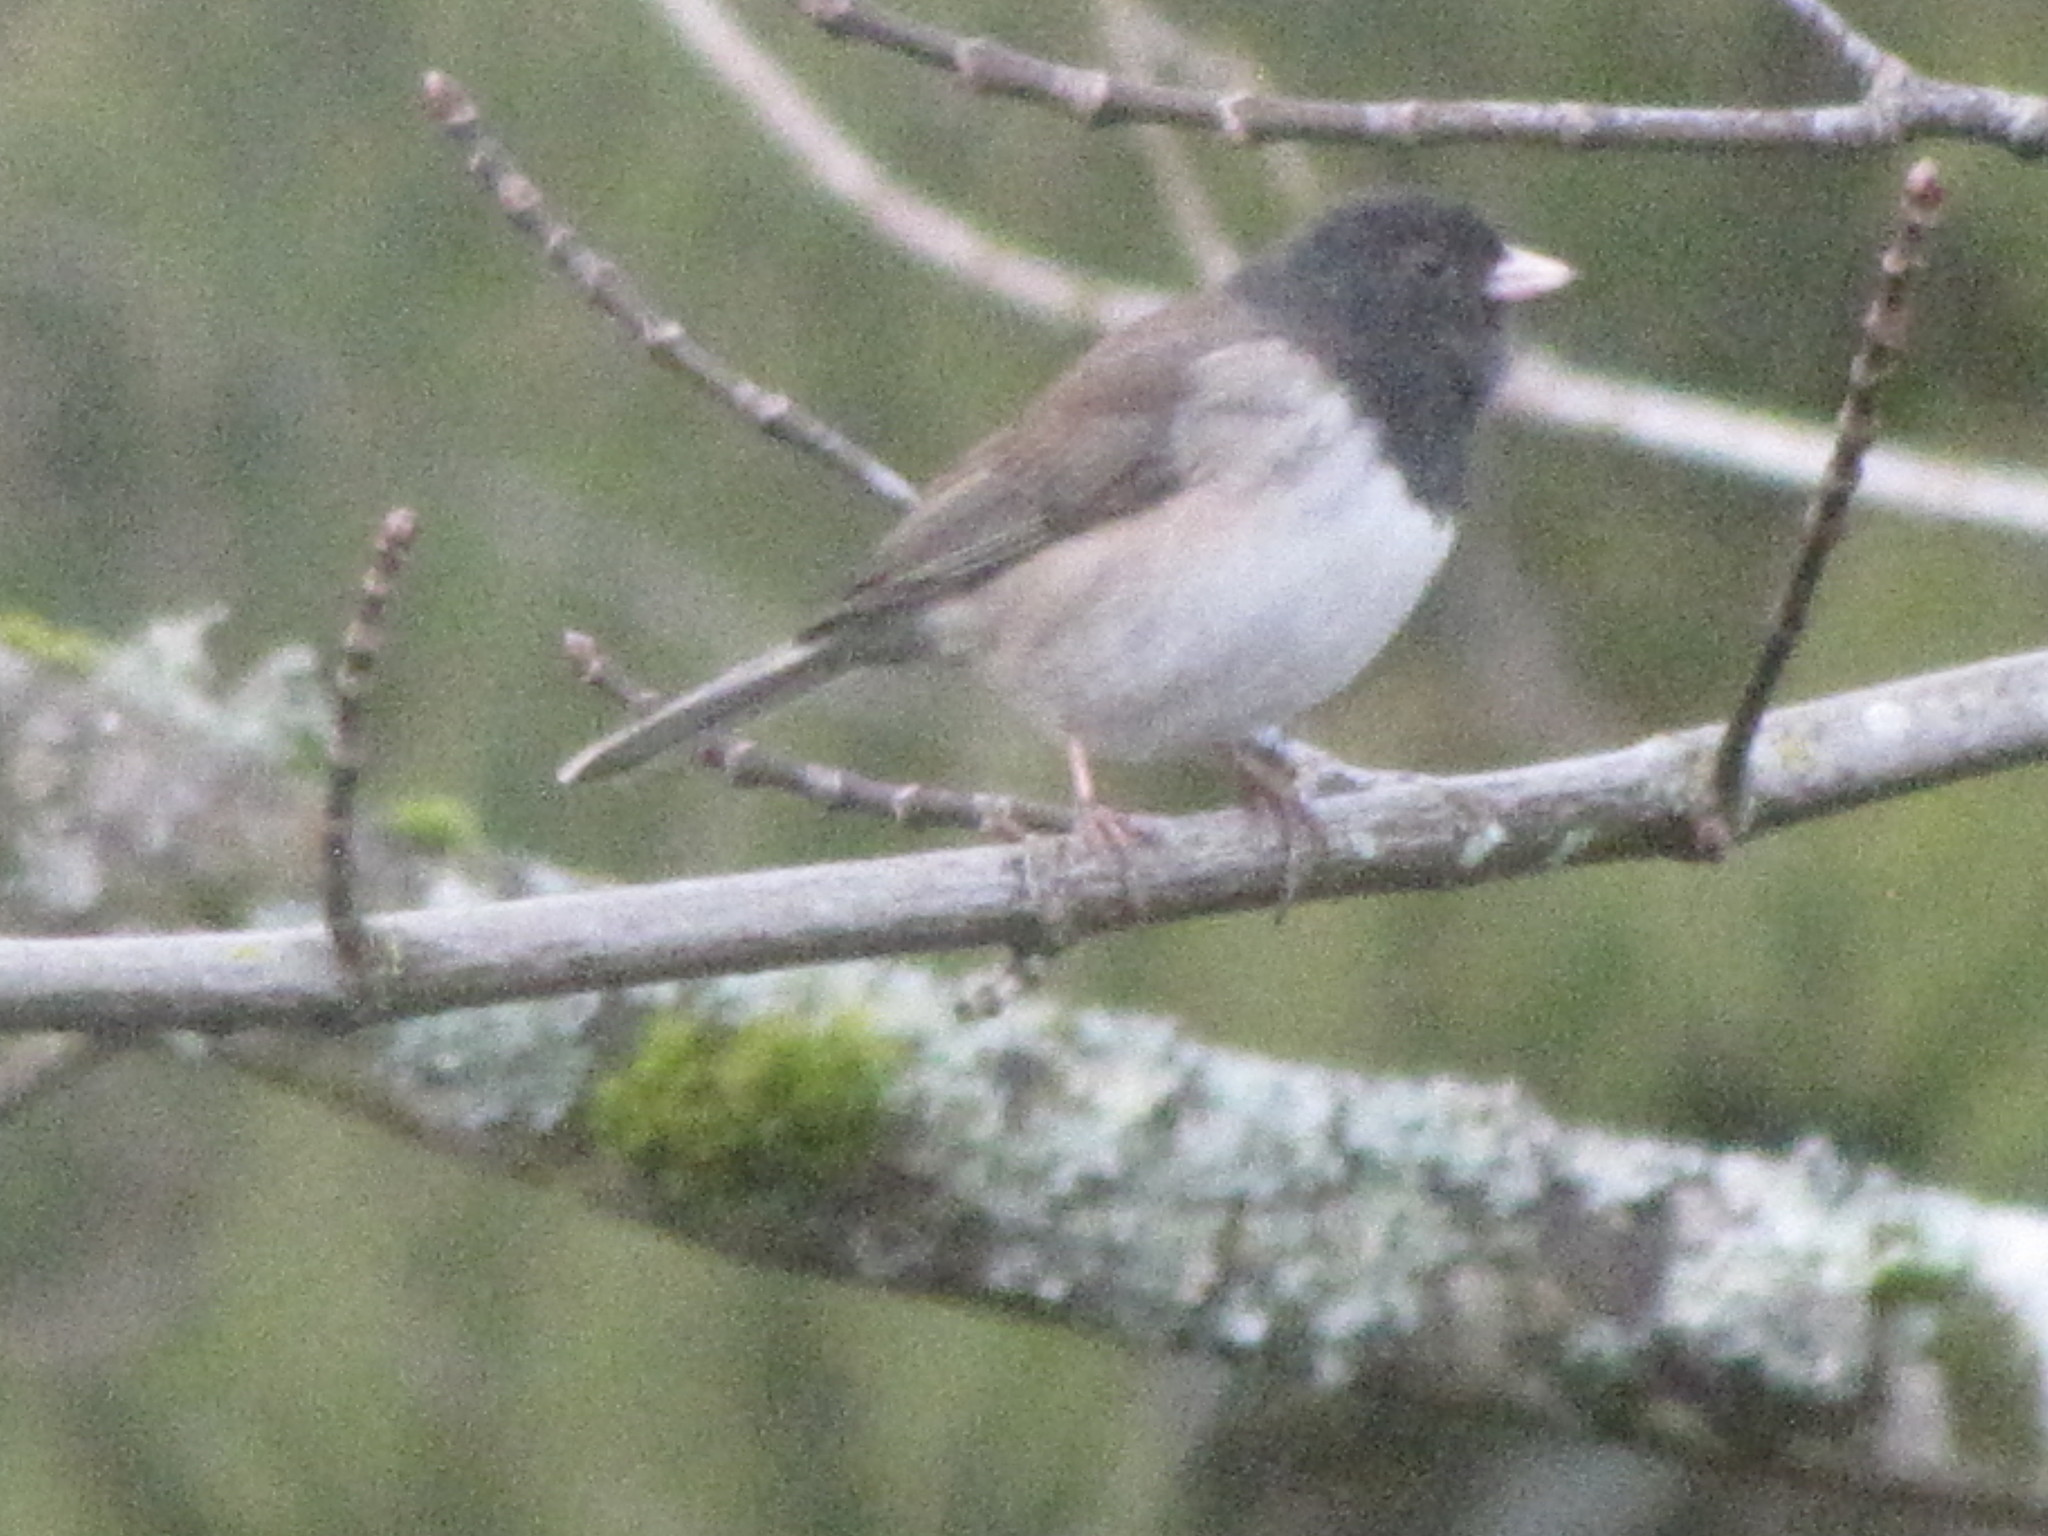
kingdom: Animalia
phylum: Chordata
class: Aves
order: Passeriformes
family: Passerellidae
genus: Junco
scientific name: Junco hyemalis
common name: Dark-eyed junco
